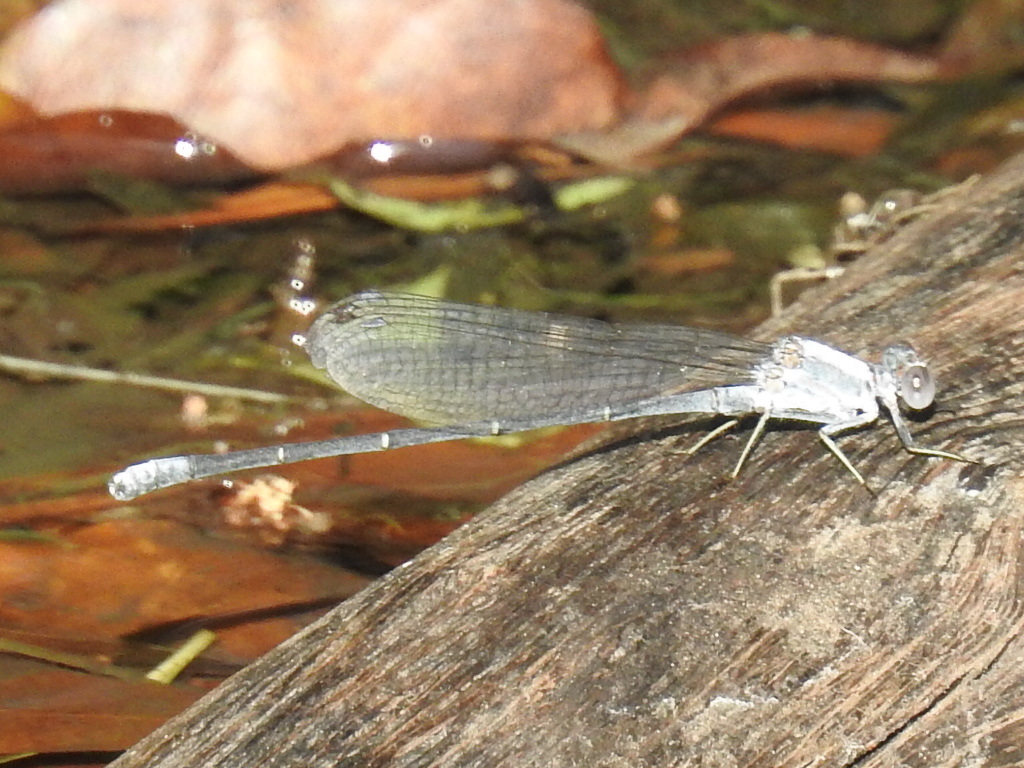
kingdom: Animalia
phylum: Arthropoda
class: Insecta
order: Odonata
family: Coenagrionidae
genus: Argia
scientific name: Argia moesta
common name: Powdered dancer
